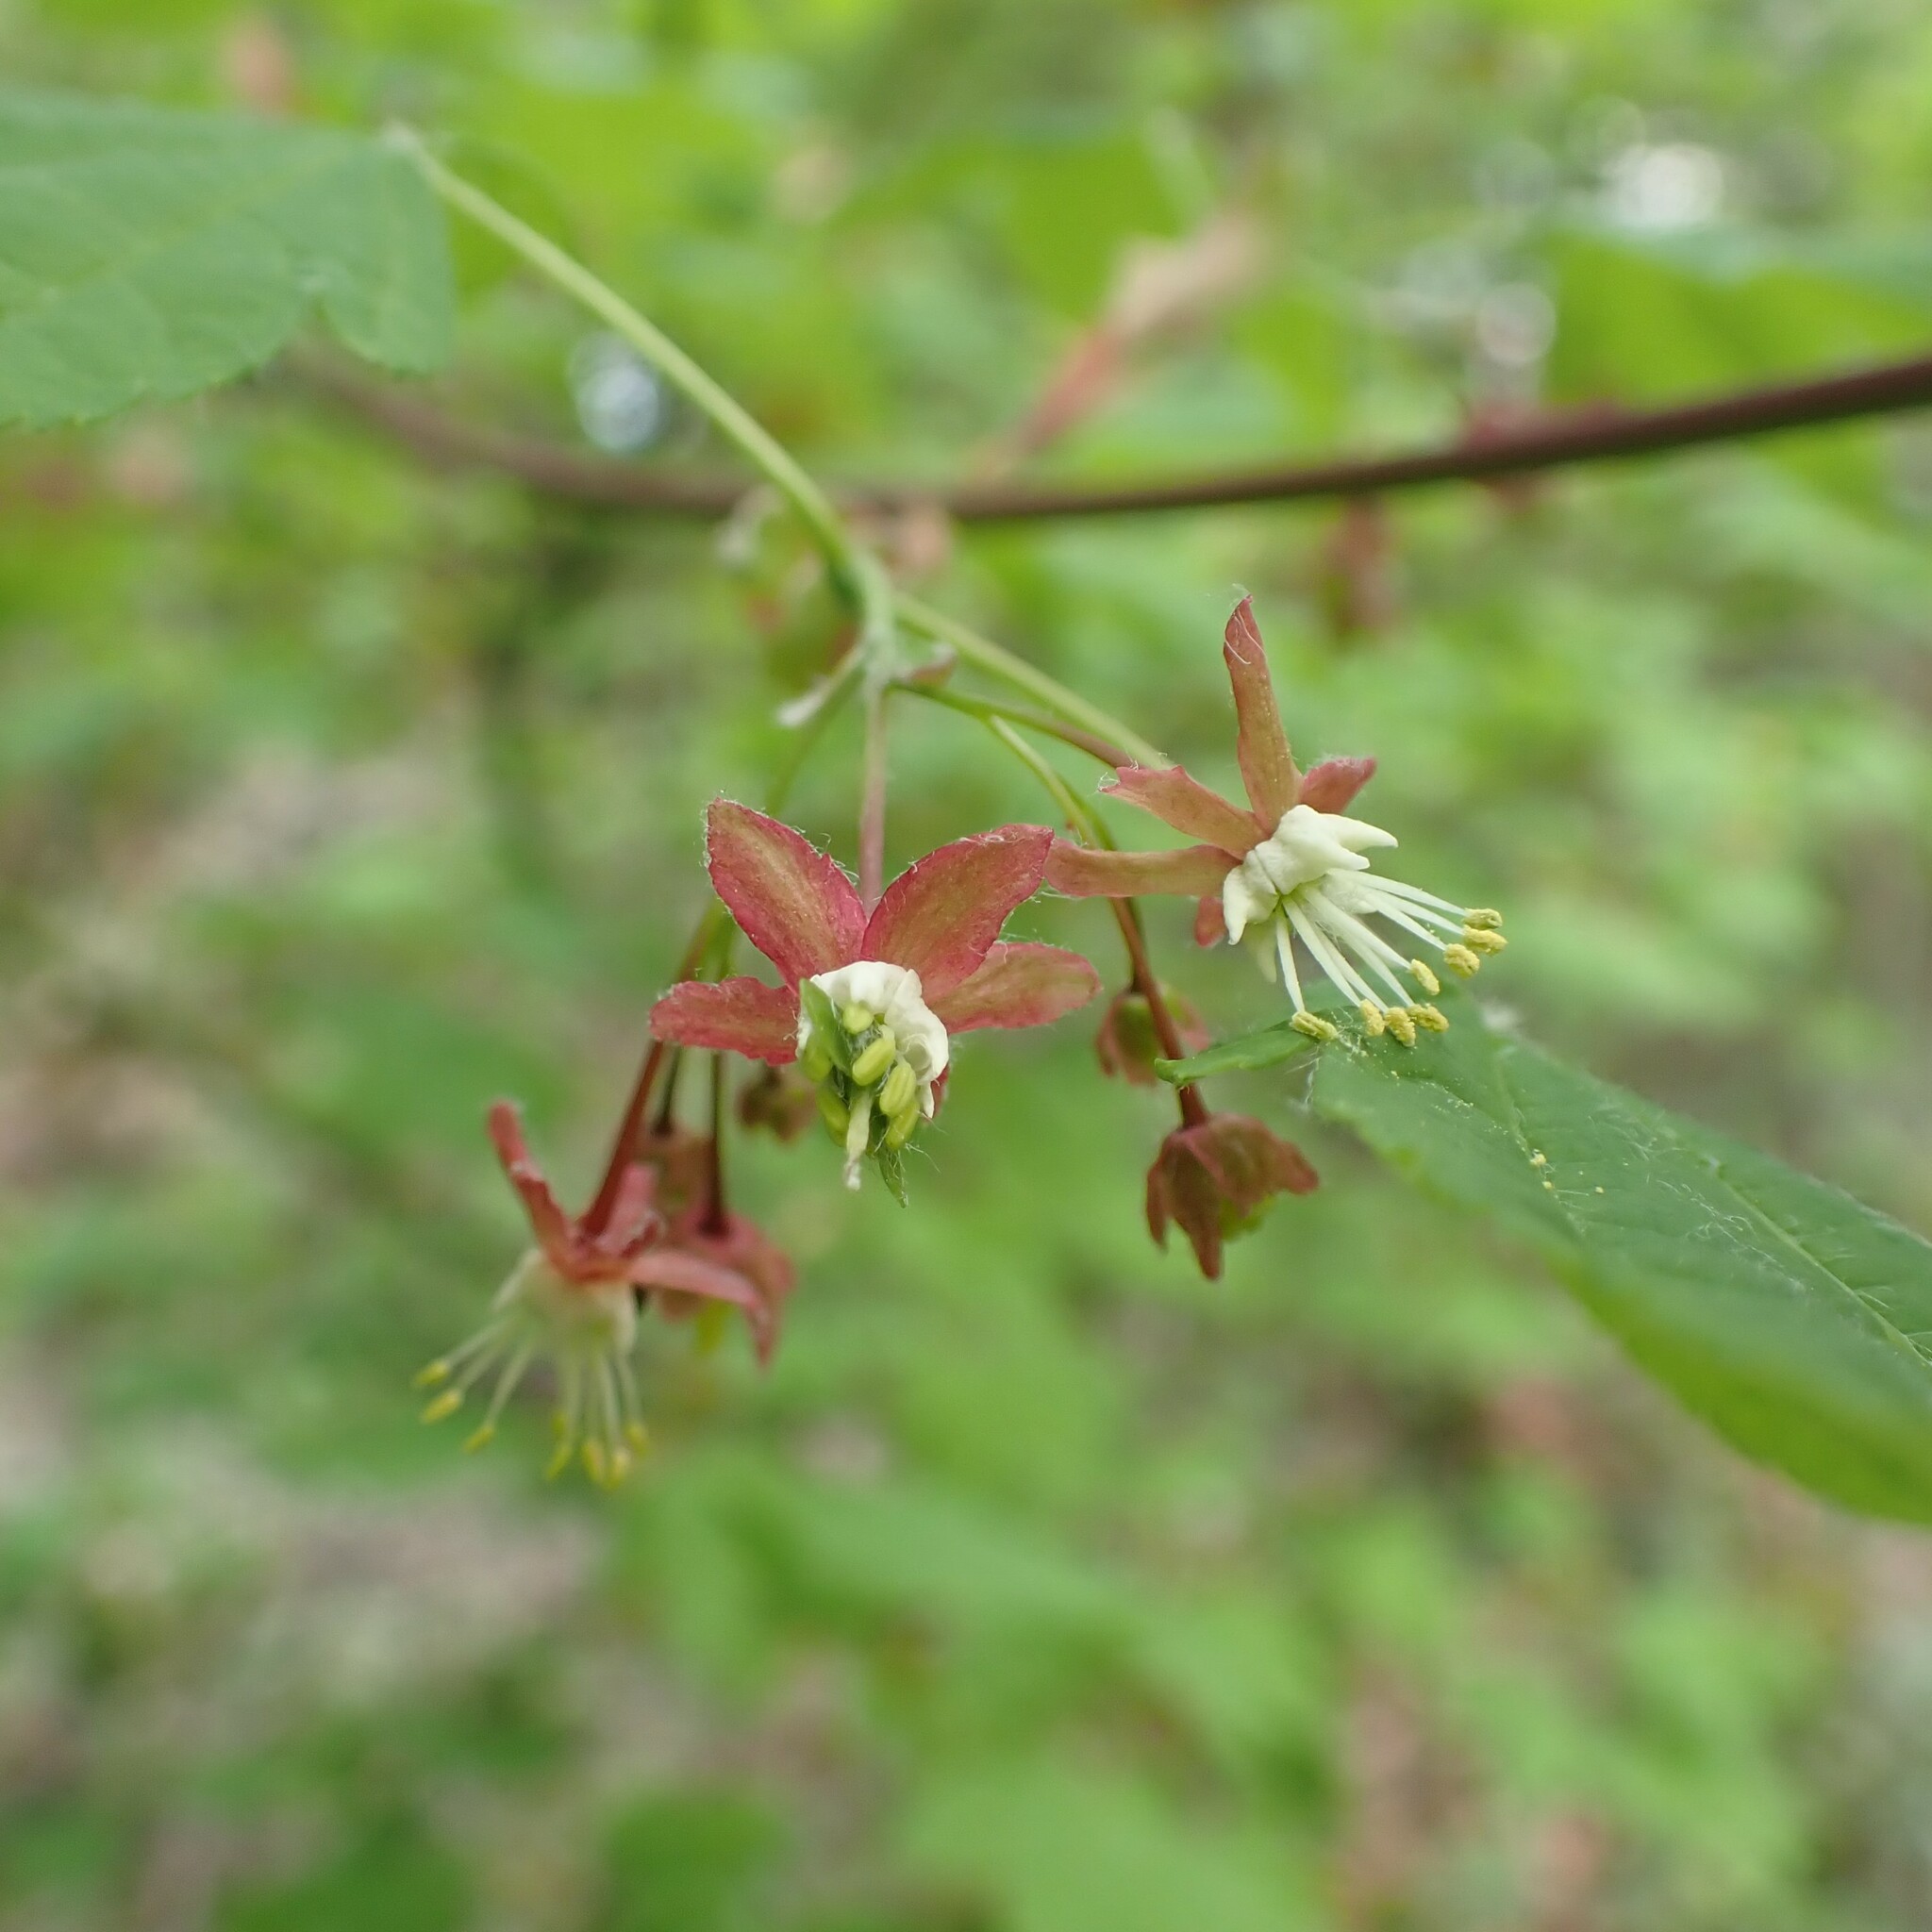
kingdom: Plantae
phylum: Tracheophyta
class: Magnoliopsida
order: Sapindales
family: Sapindaceae
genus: Acer
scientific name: Acer circinatum
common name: Vine maple
